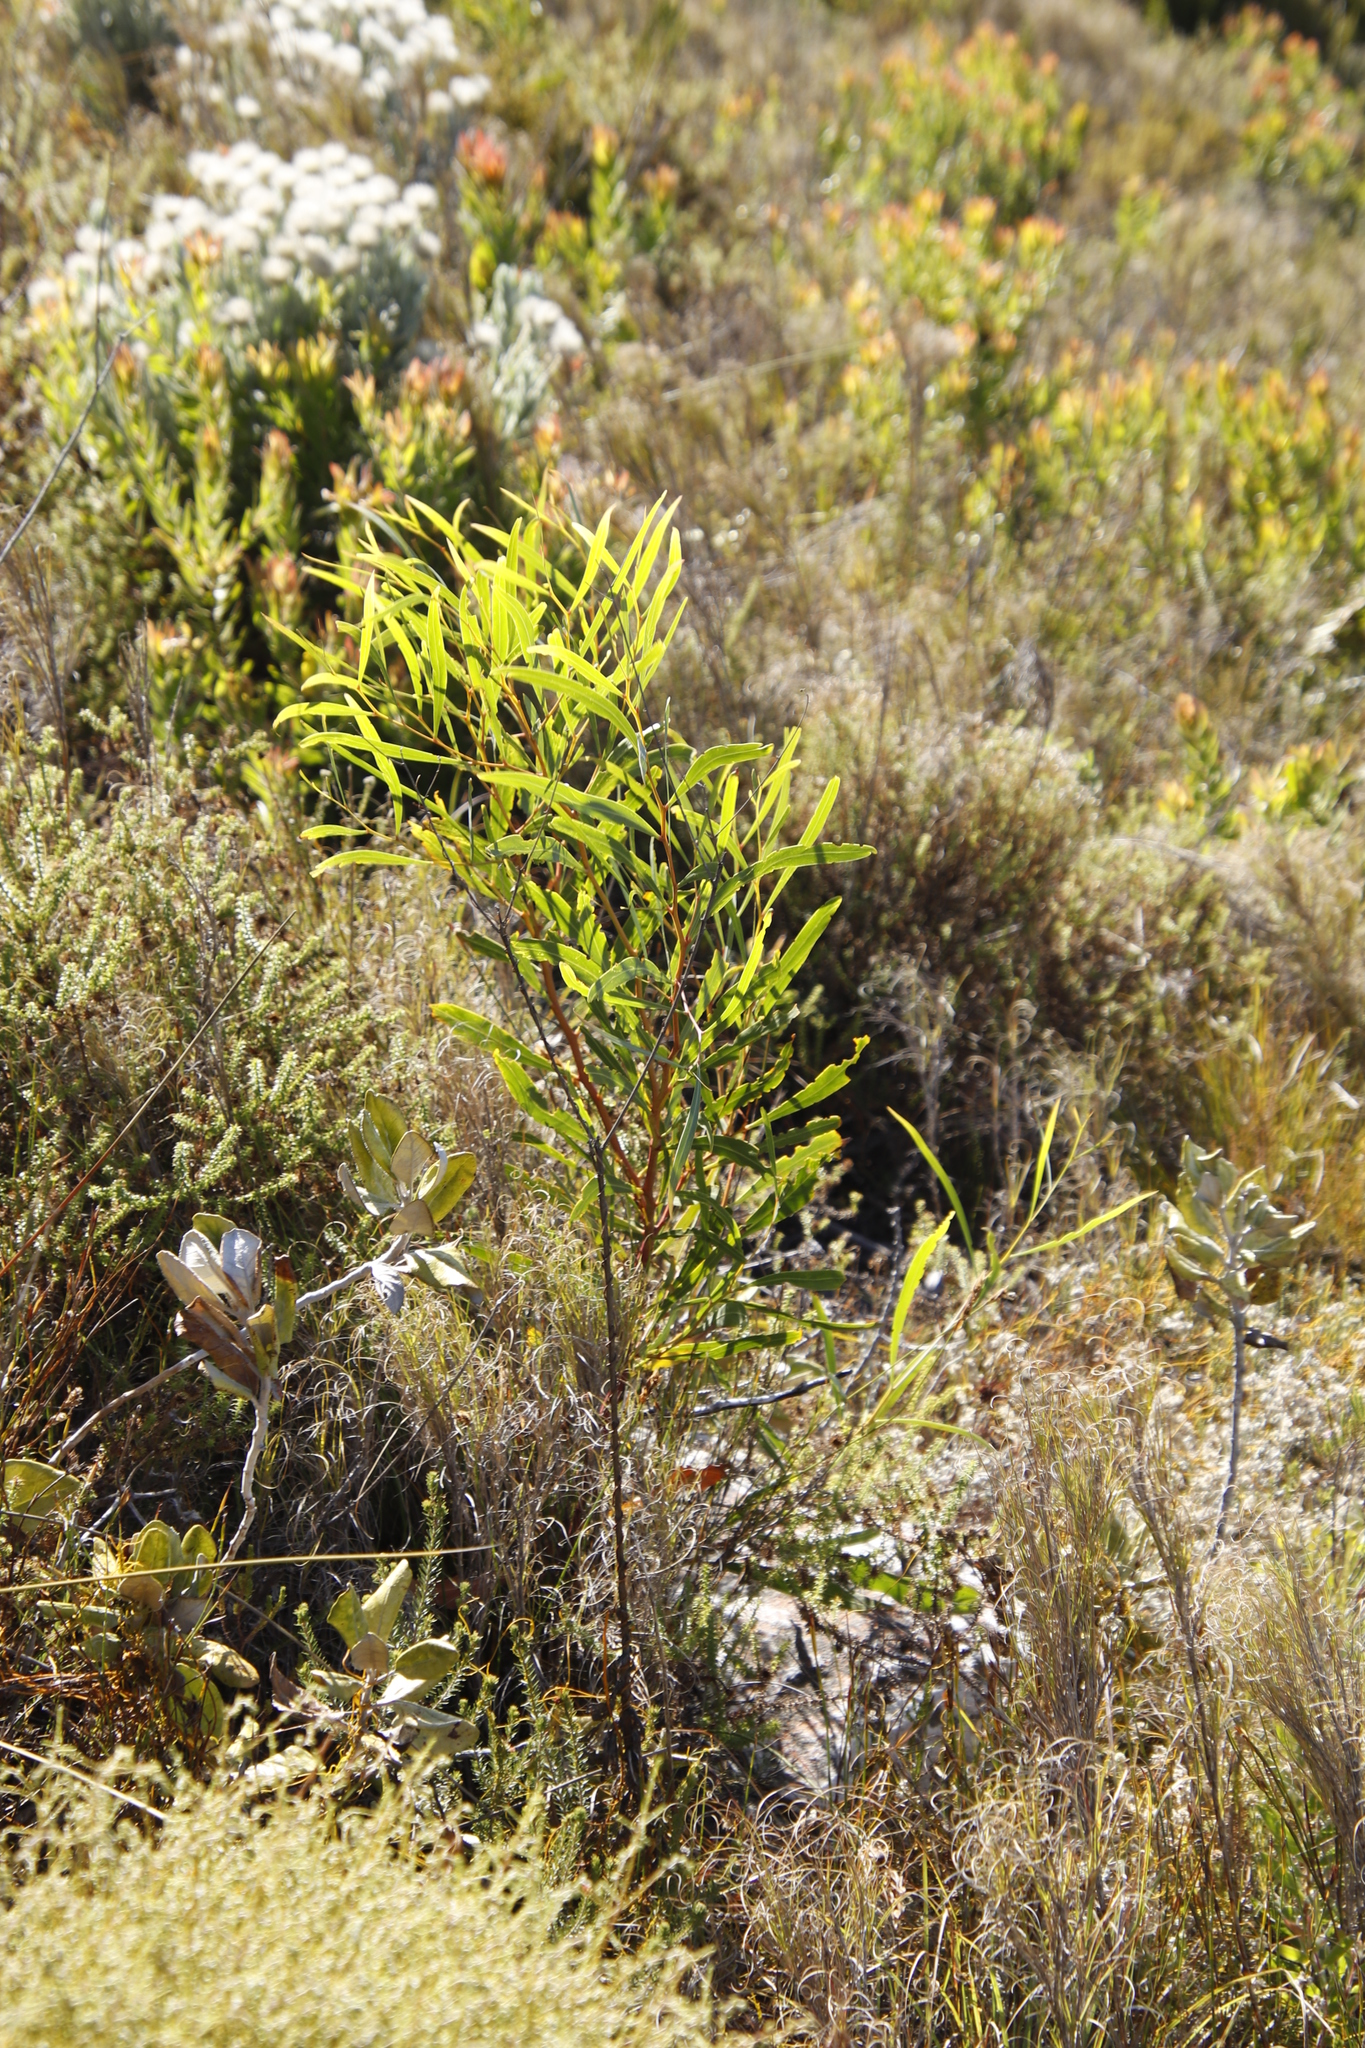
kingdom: Plantae
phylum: Tracheophyta
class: Magnoliopsida
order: Fabales
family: Fabaceae
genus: Acacia
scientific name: Acacia saligna
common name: Orange wattle
